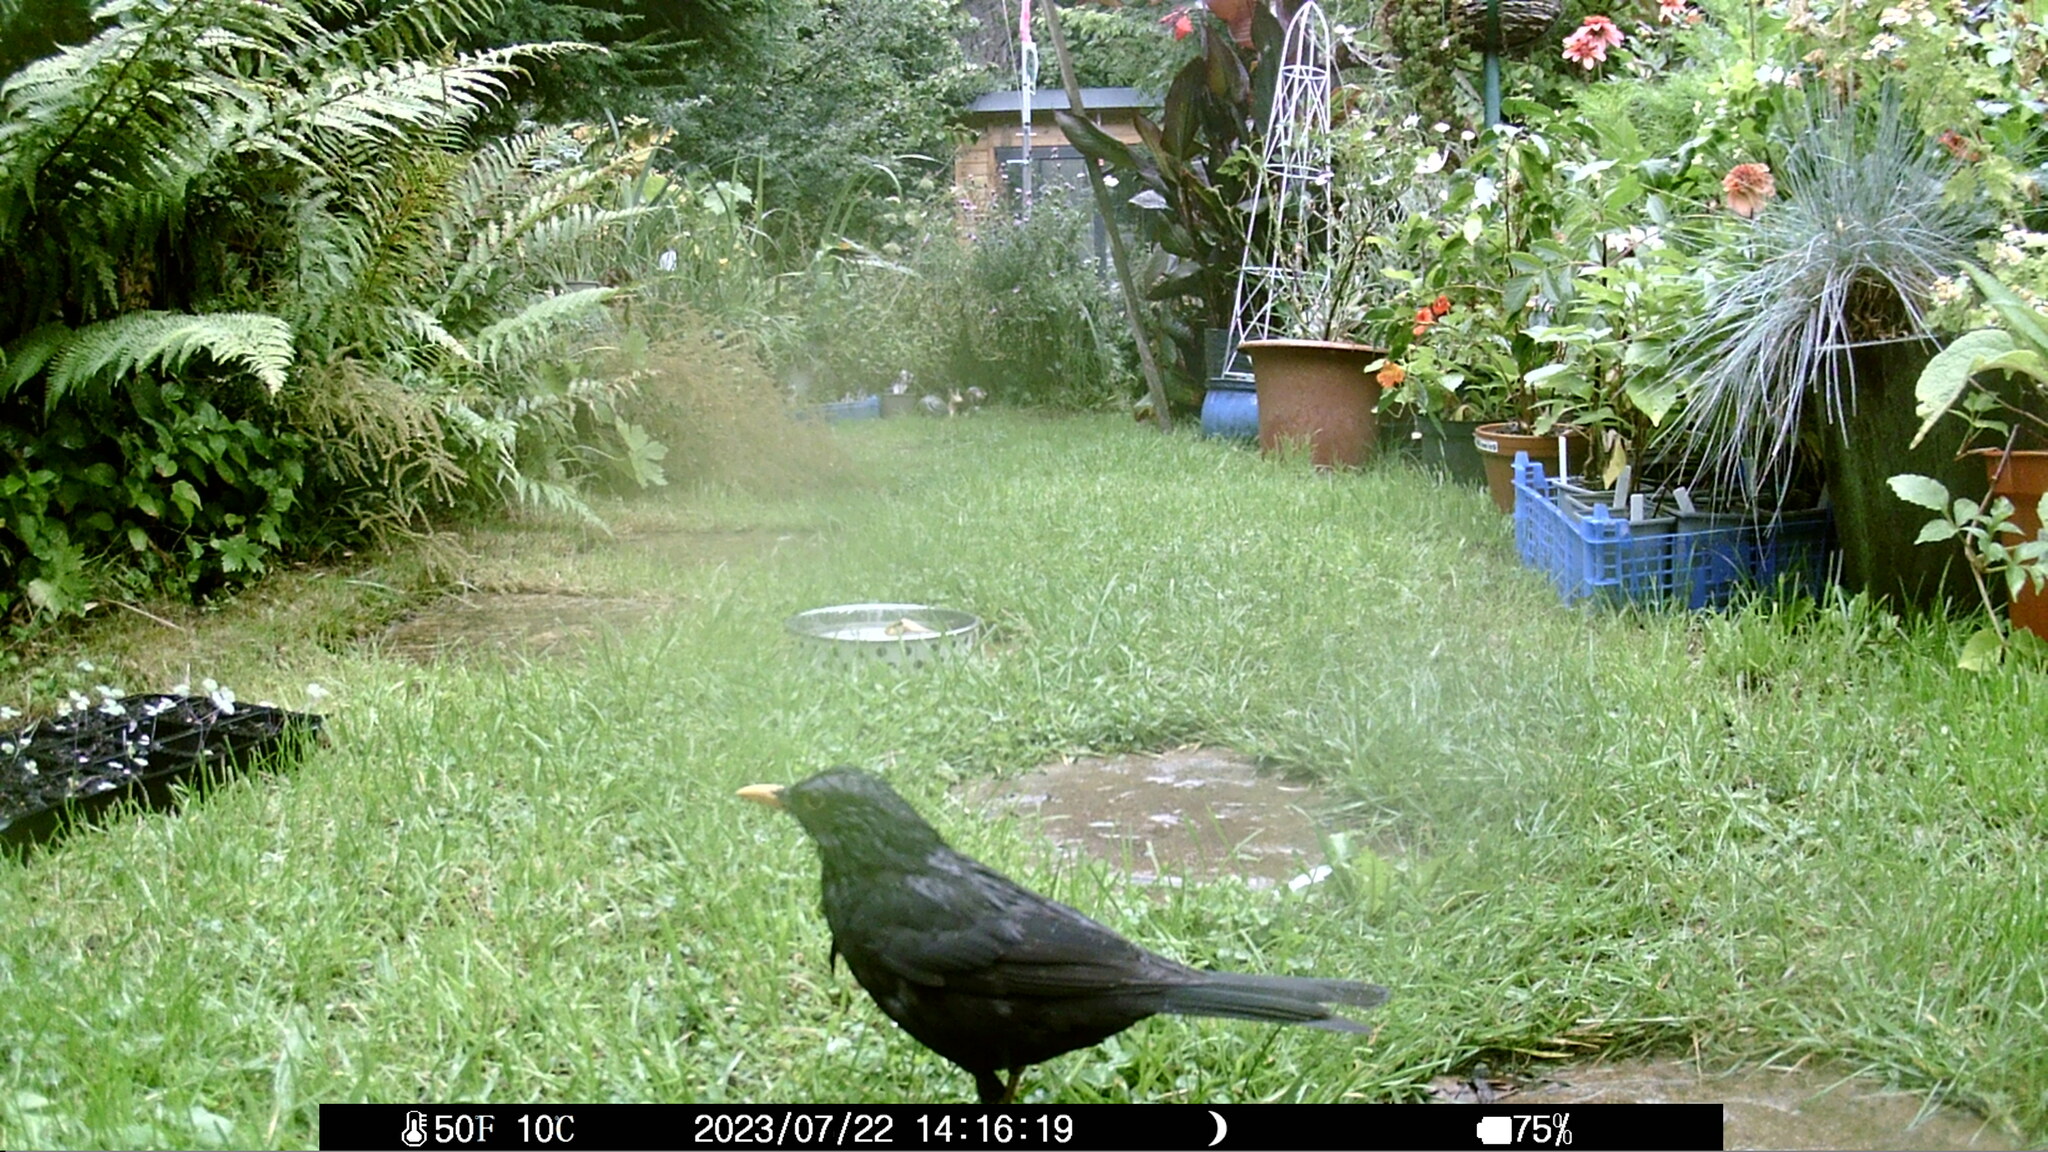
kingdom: Animalia
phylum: Chordata
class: Aves
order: Passeriformes
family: Turdidae
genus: Turdus
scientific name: Turdus merula
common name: Common blackbird
